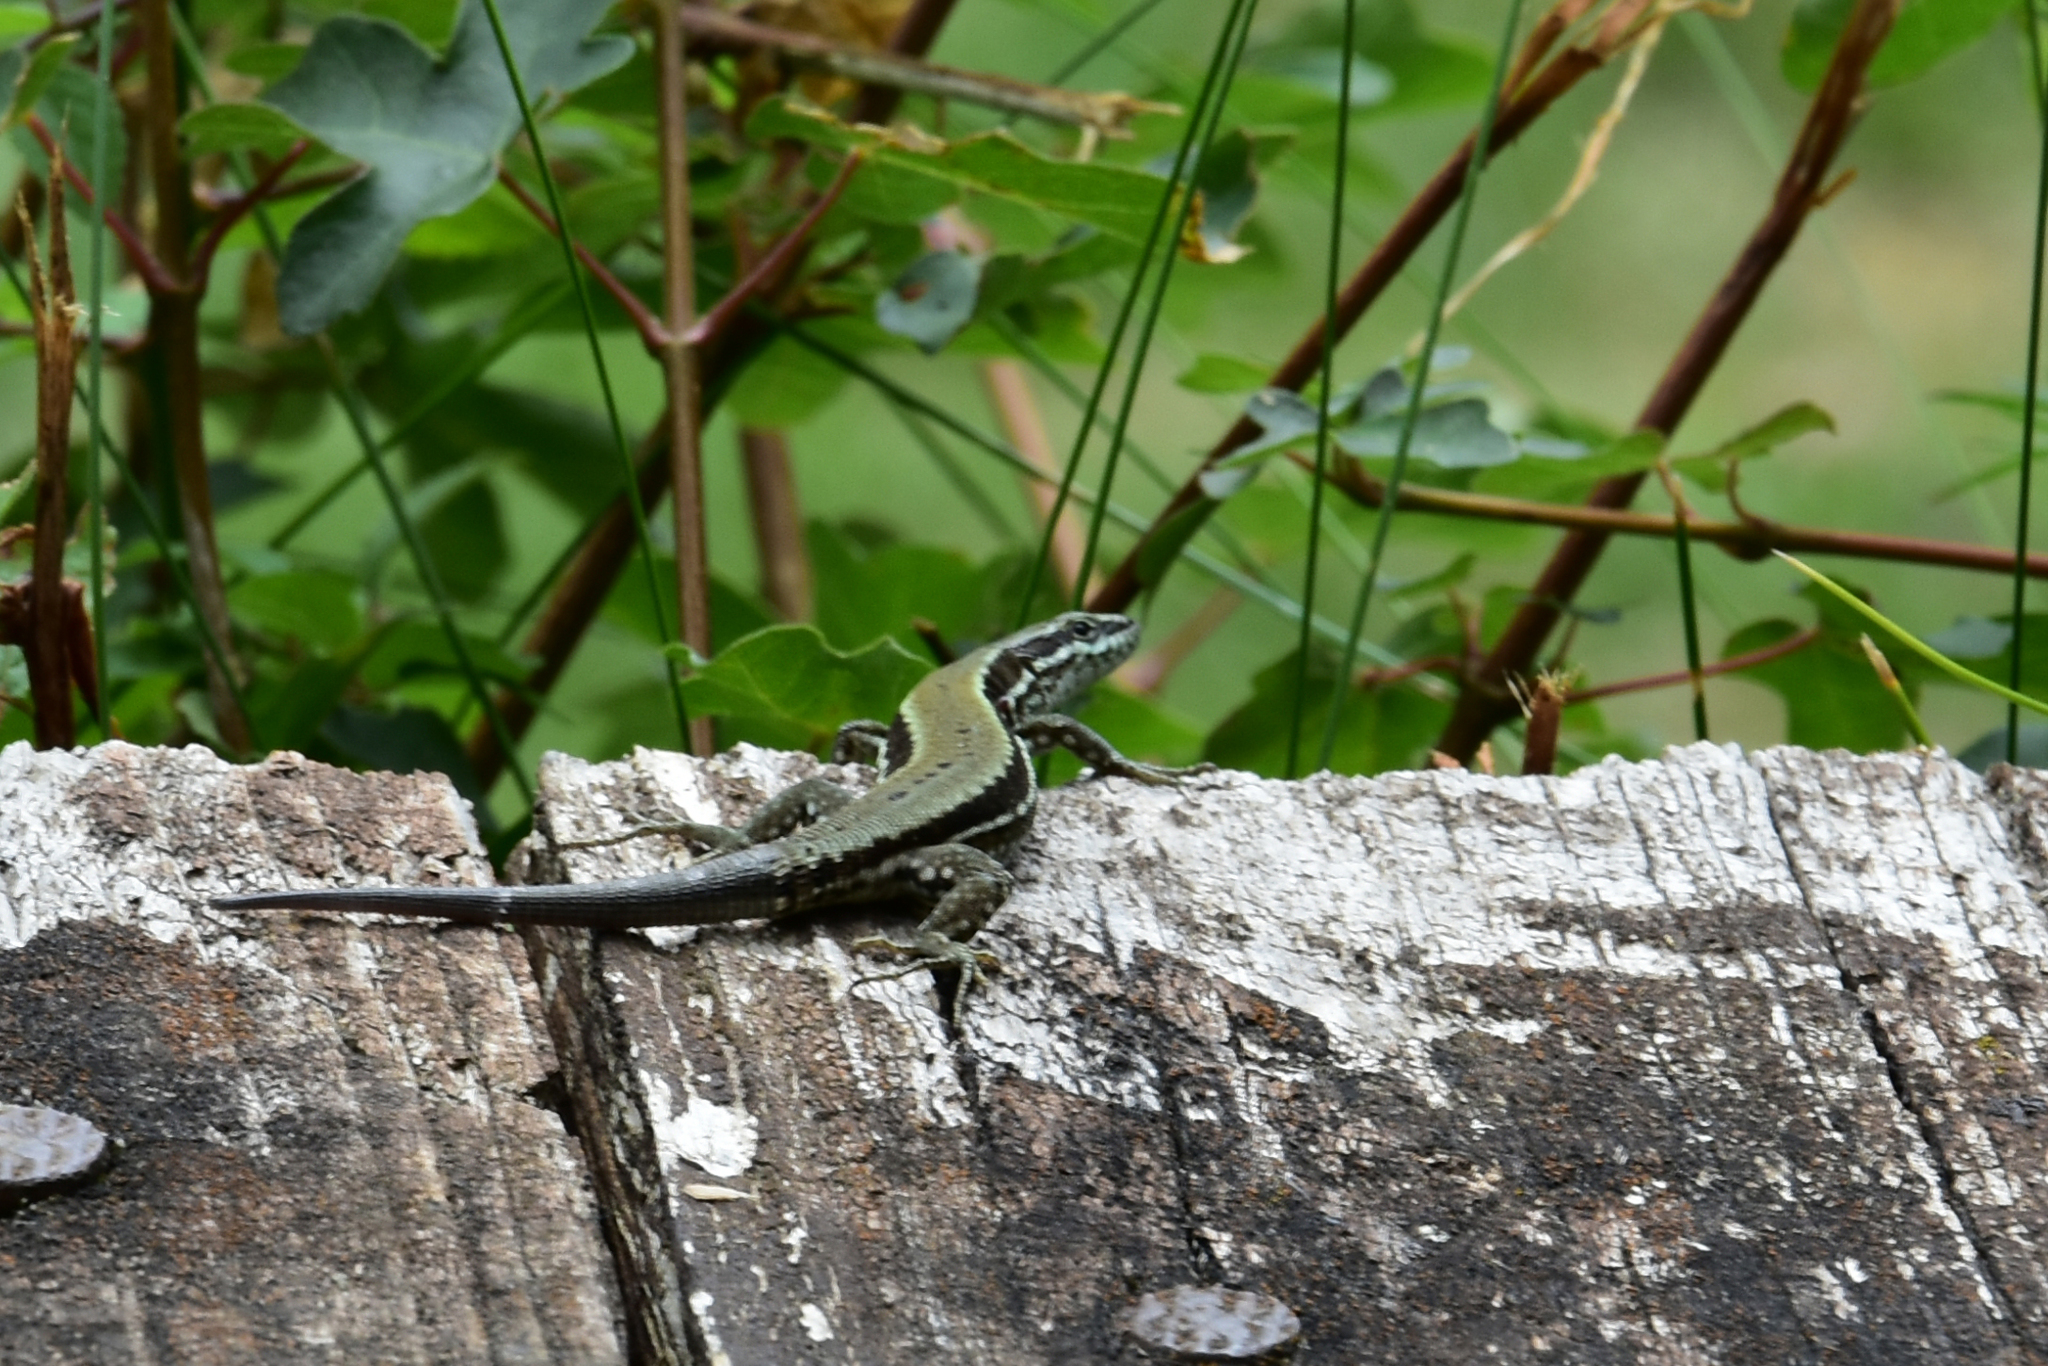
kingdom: Animalia
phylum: Chordata
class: Squamata
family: Lacertidae
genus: Podarcis
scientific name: Podarcis muralis
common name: Common wall lizard
